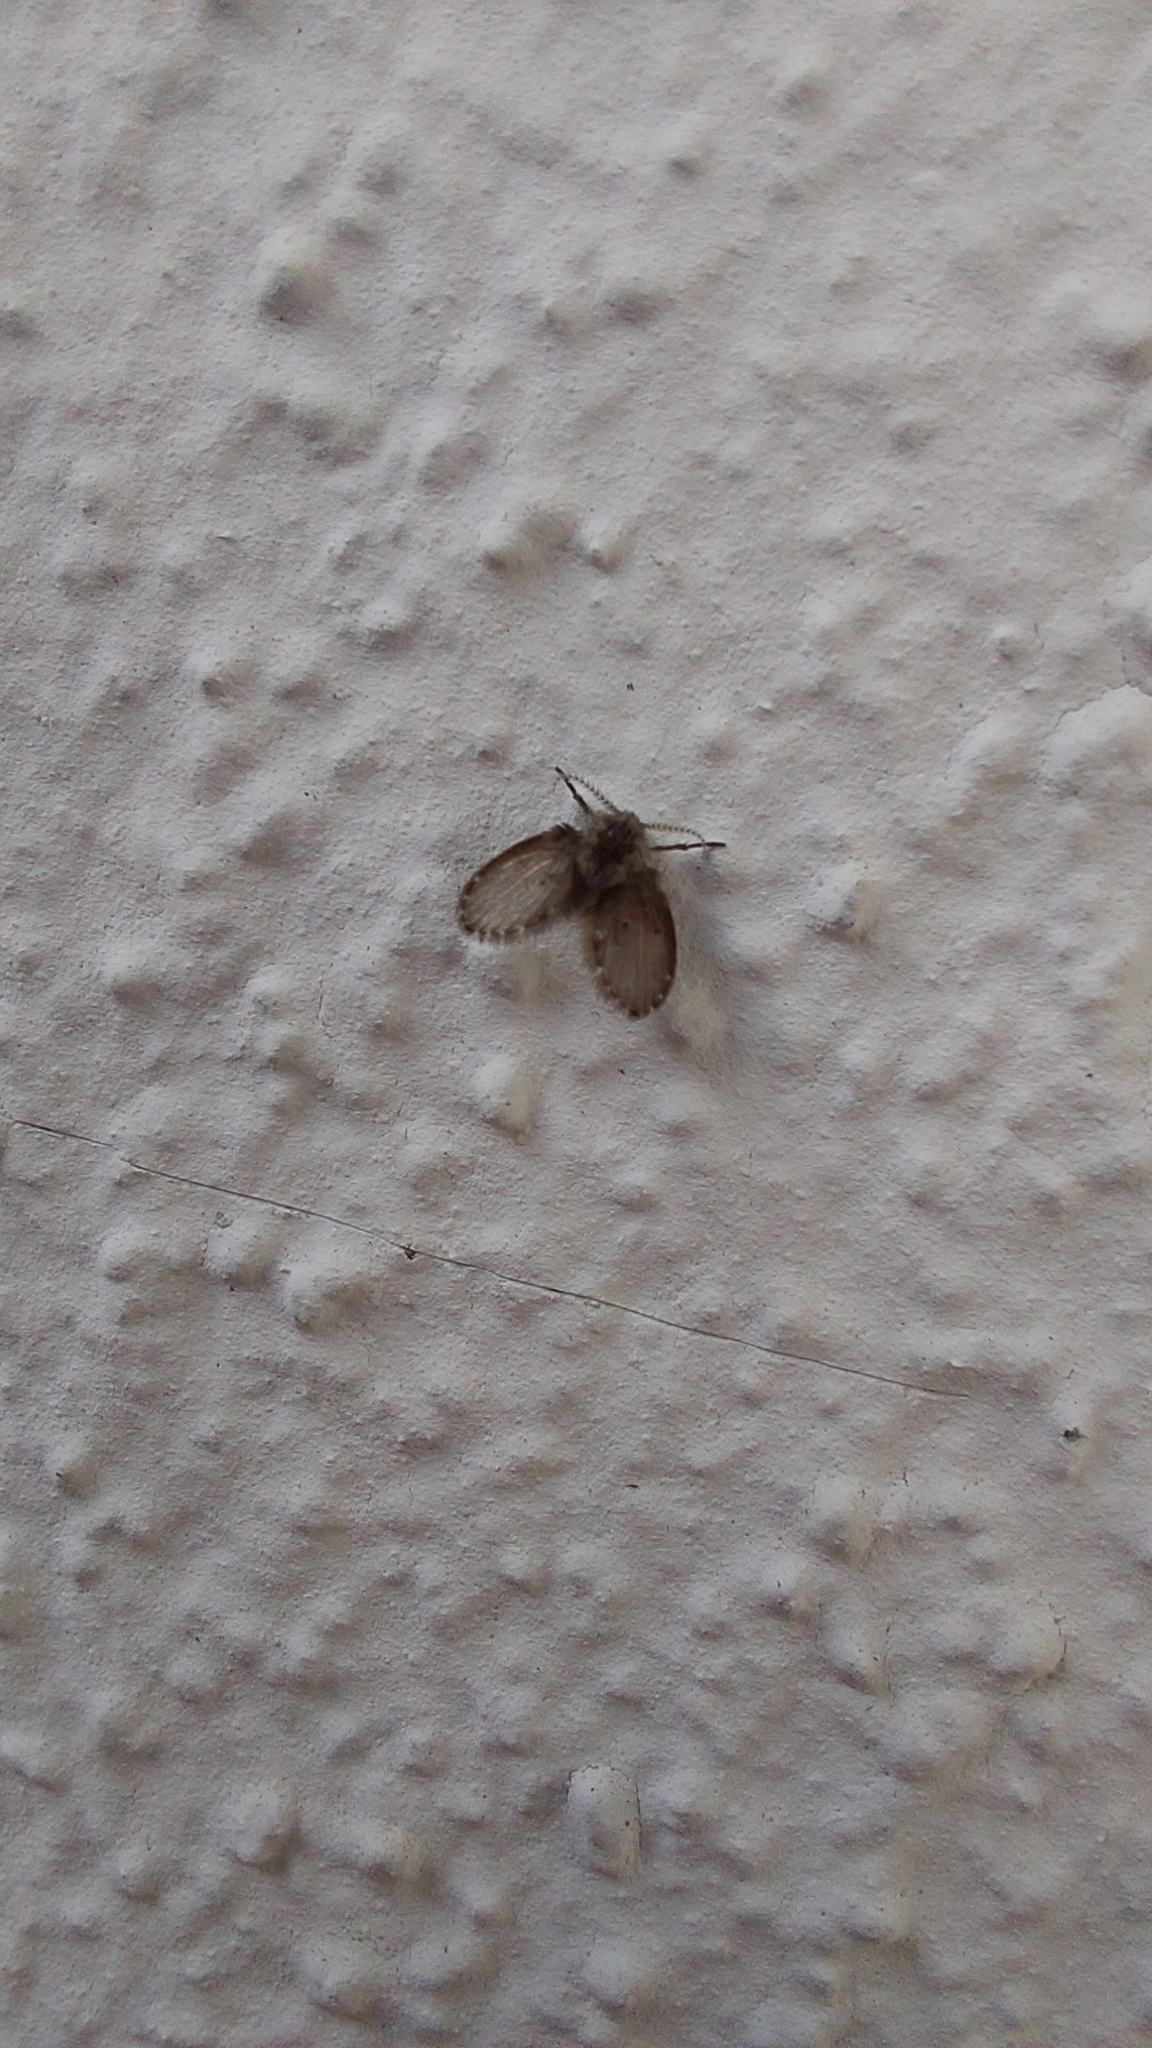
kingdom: Animalia
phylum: Arthropoda
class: Insecta
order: Diptera
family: Psychodidae
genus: Clogmia
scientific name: Clogmia albipunctatus
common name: White-spotted moth fly
